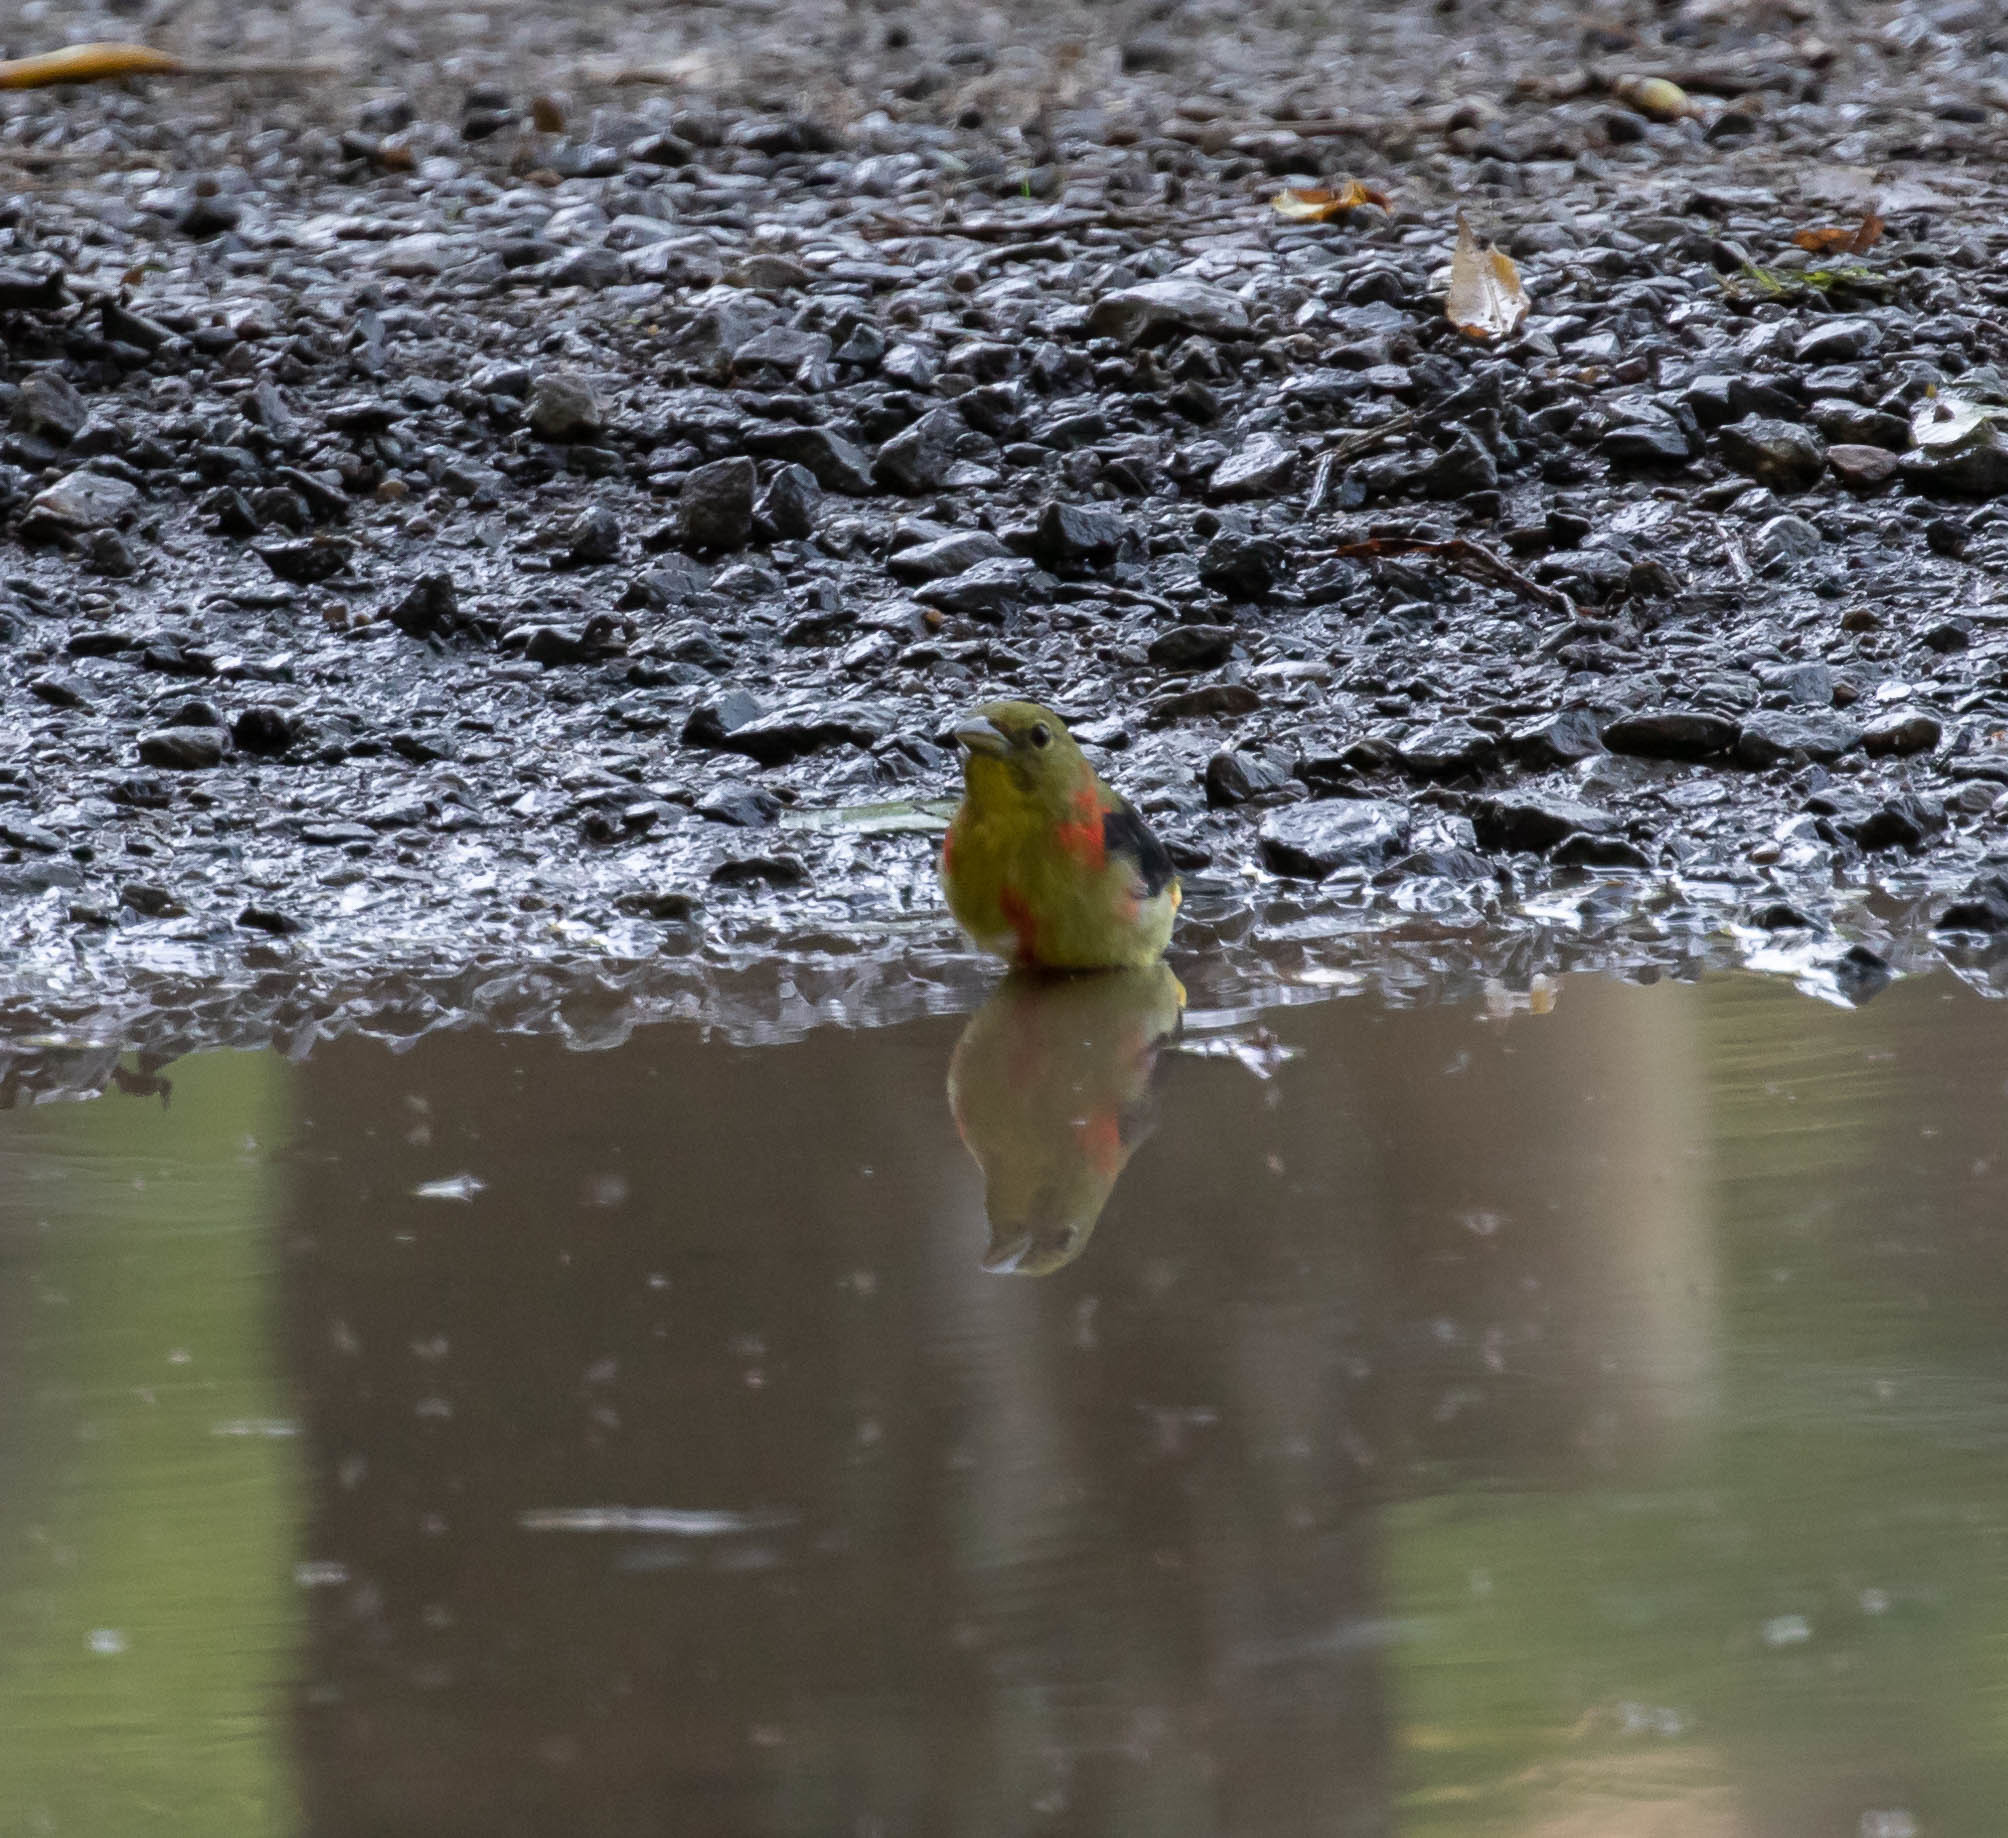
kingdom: Animalia
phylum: Chordata
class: Aves
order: Passeriformes
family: Cardinalidae
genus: Piranga
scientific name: Piranga olivacea
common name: Scarlet tanager
